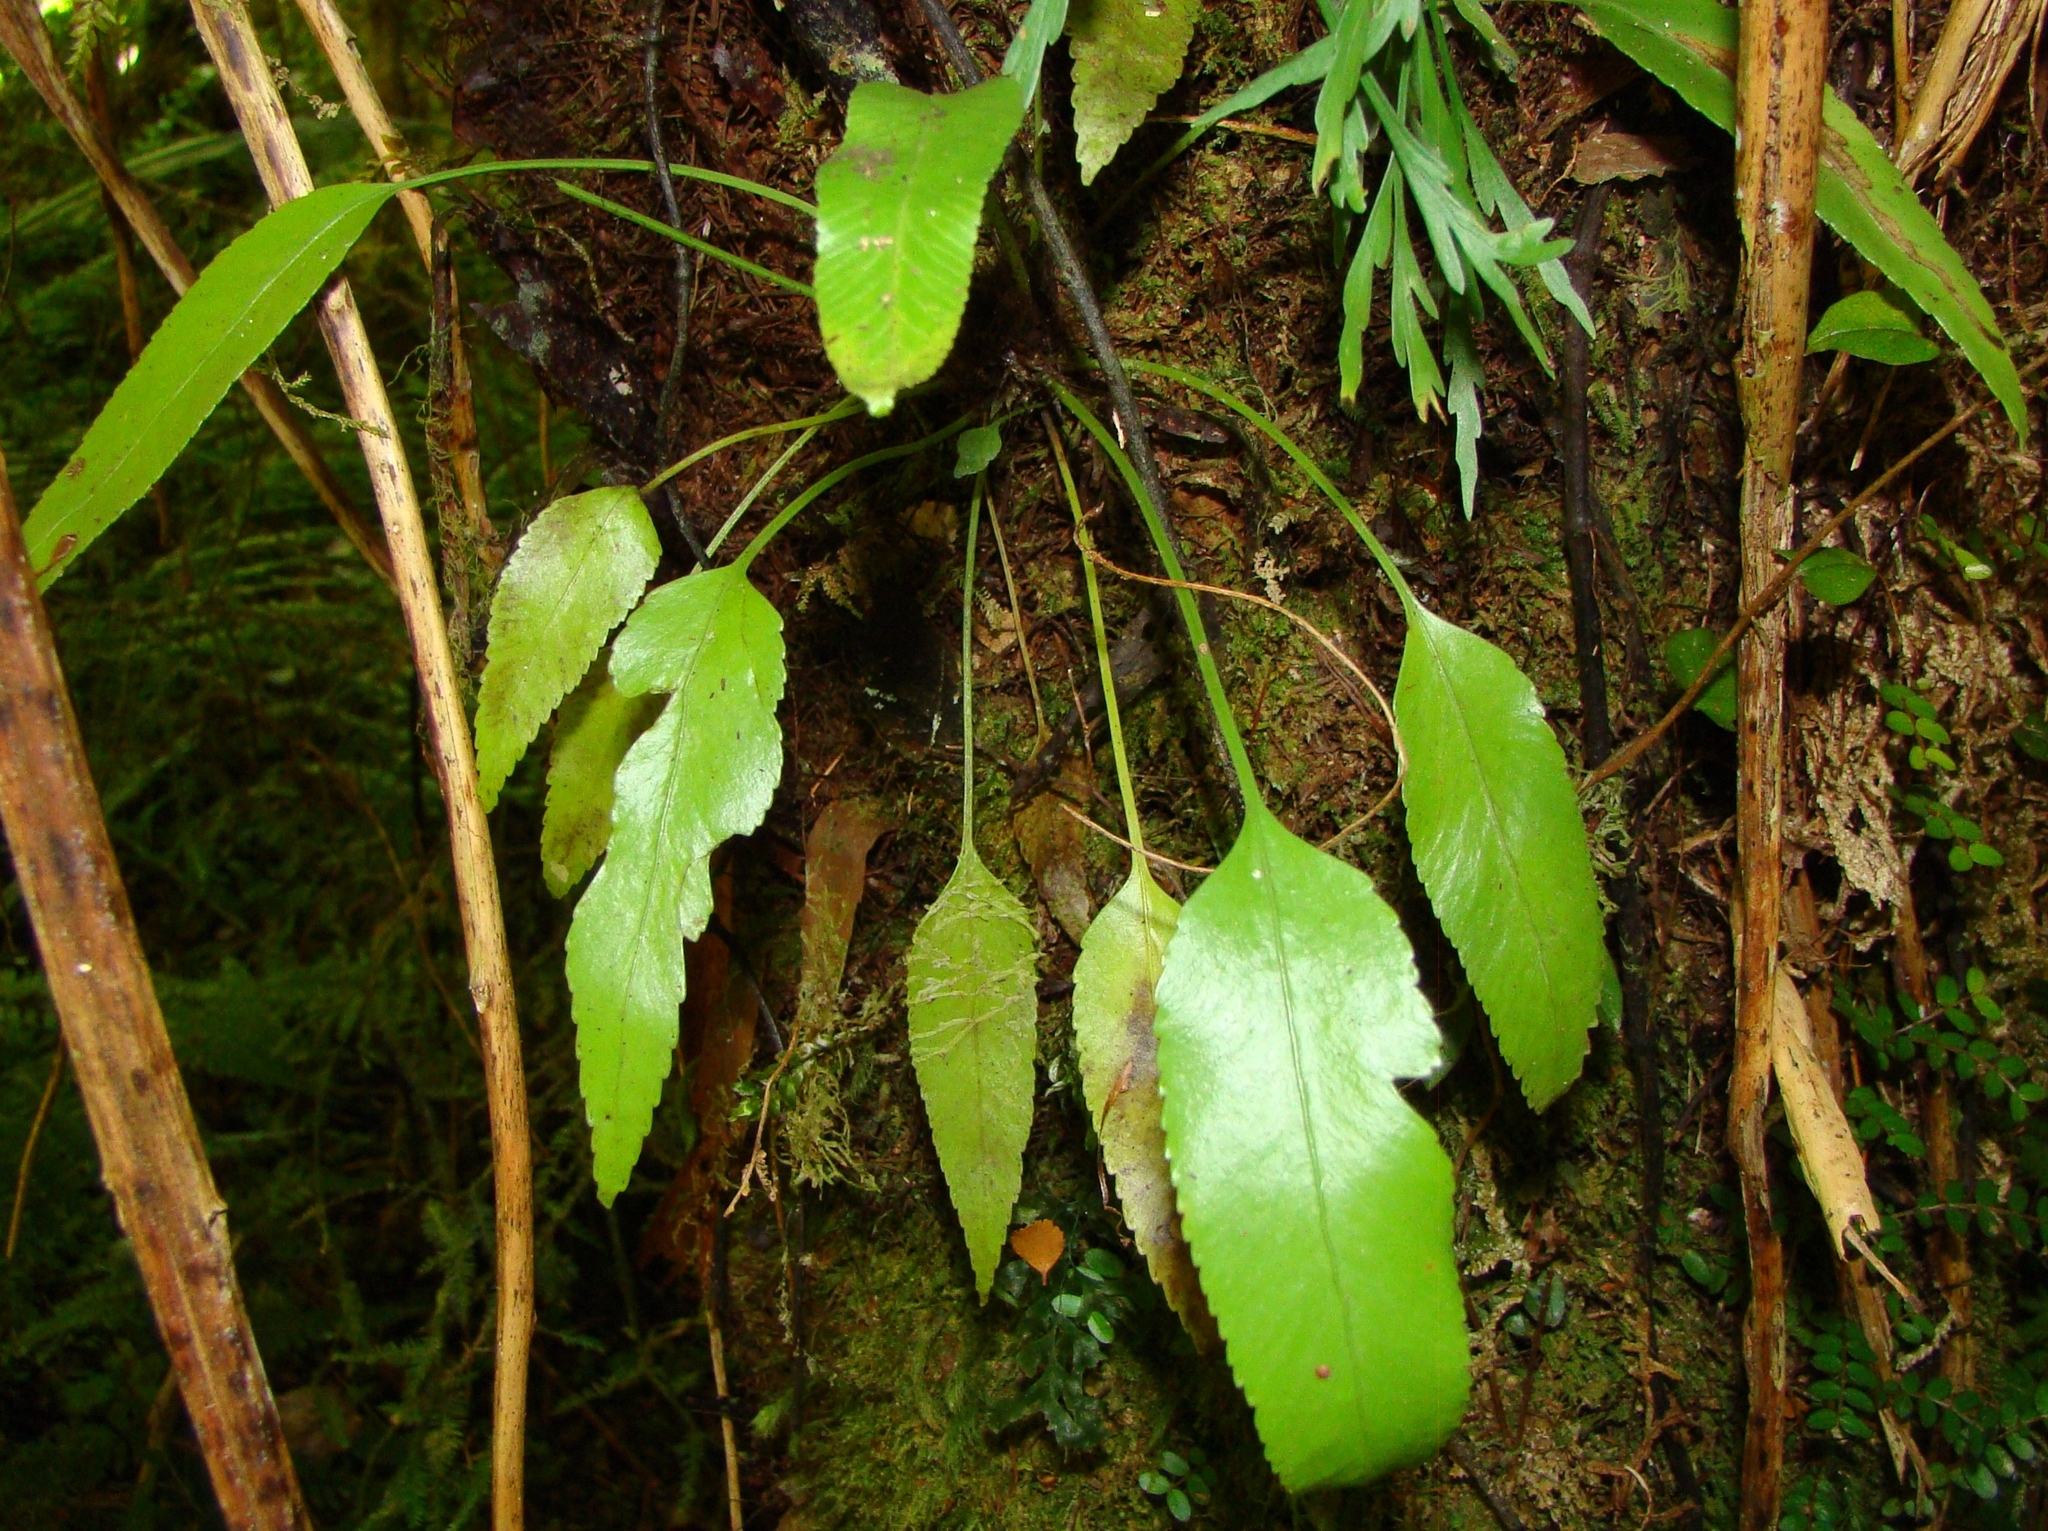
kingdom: Plantae
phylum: Tracheophyta
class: Polypodiopsida
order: Polypodiales
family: Aspleniaceae
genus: Asplenium
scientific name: Asplenium lepidotum
